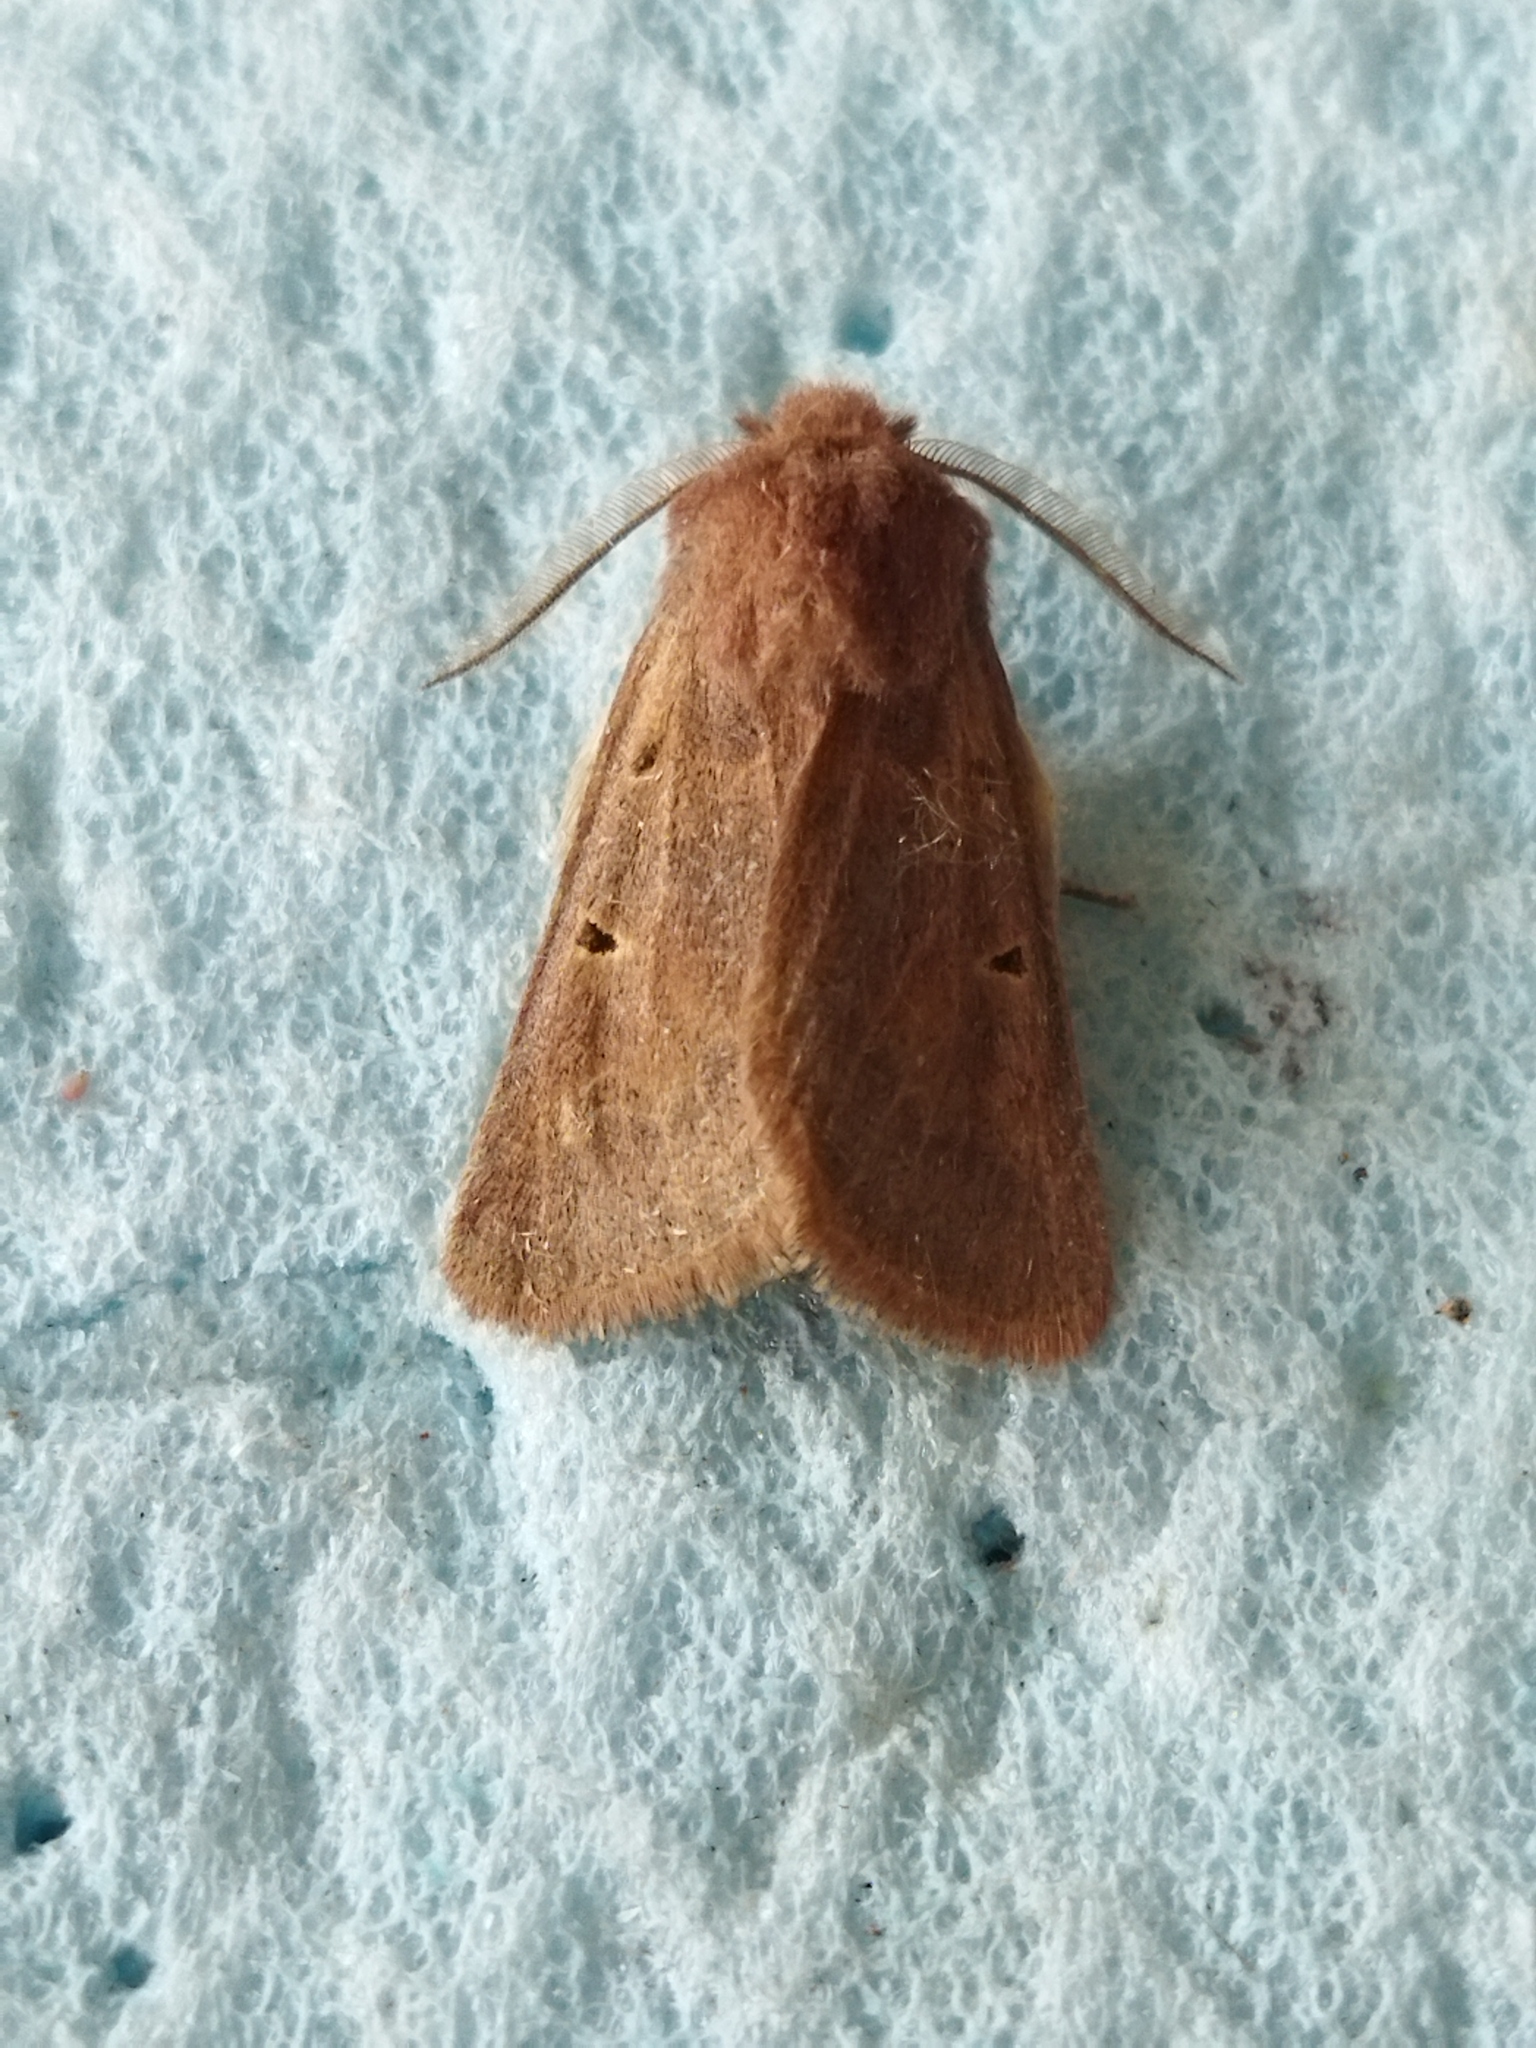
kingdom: Animalia
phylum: Arthropoda
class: Insecta
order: Lepidoptera
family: Noctuidae
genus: Episema
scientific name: Episema tersa
